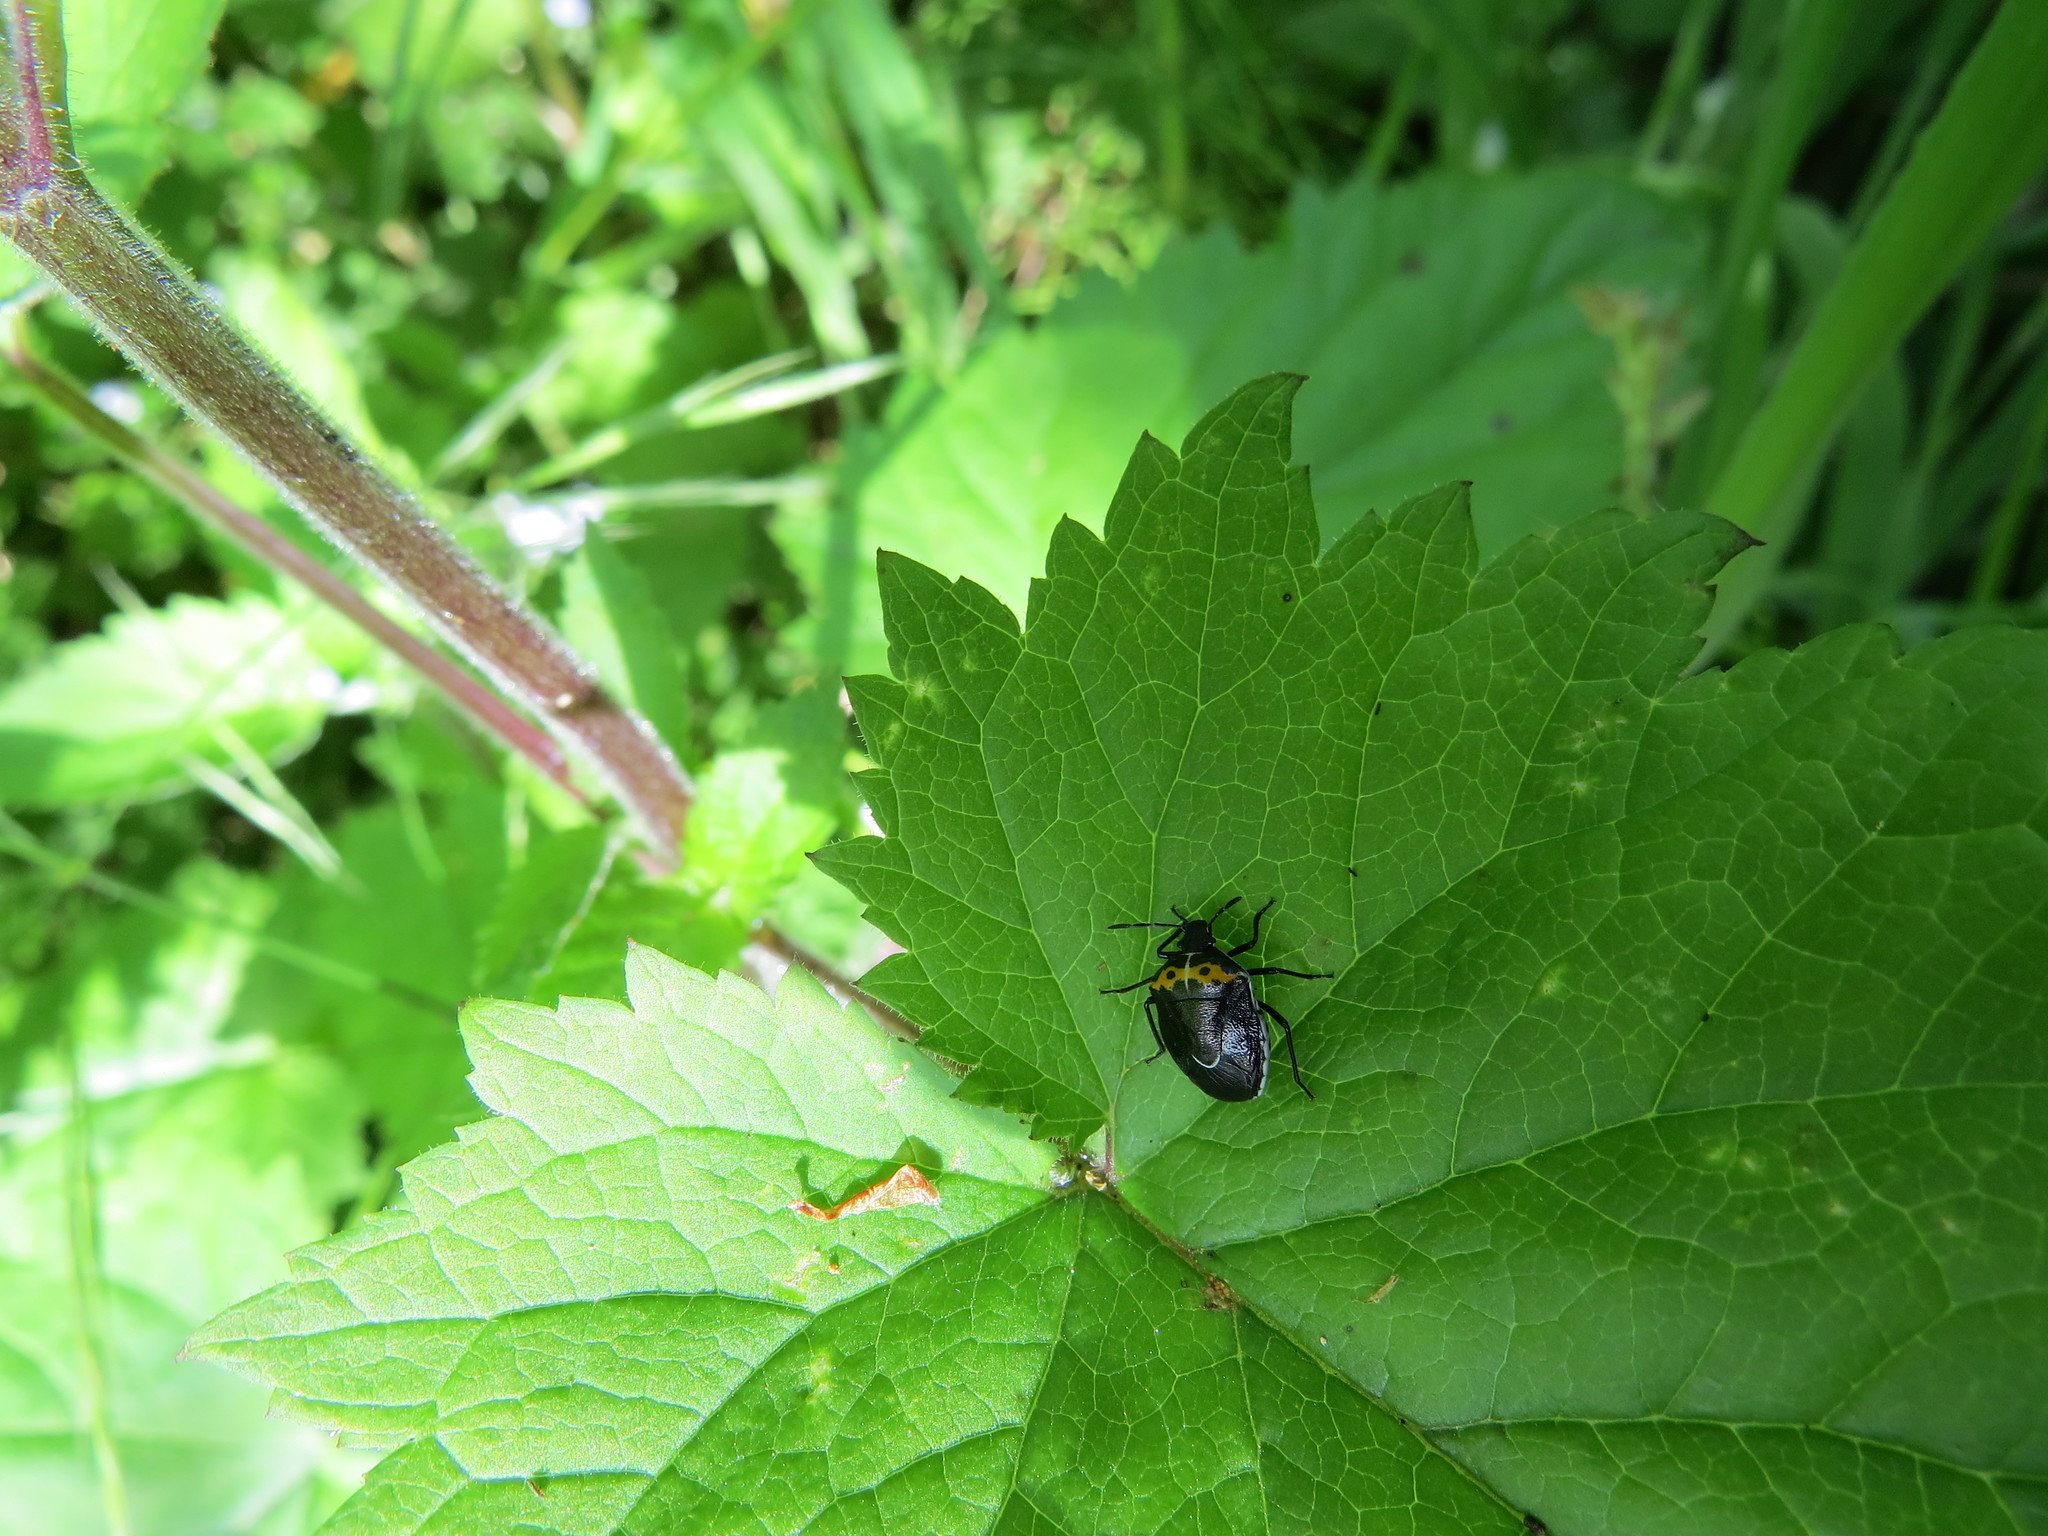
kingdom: Animalia
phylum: Arthropoda
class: Insecta
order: Hemiptera
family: Pentatomidae
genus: Cosmopepla
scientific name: Cosmopepla conspicillaris
